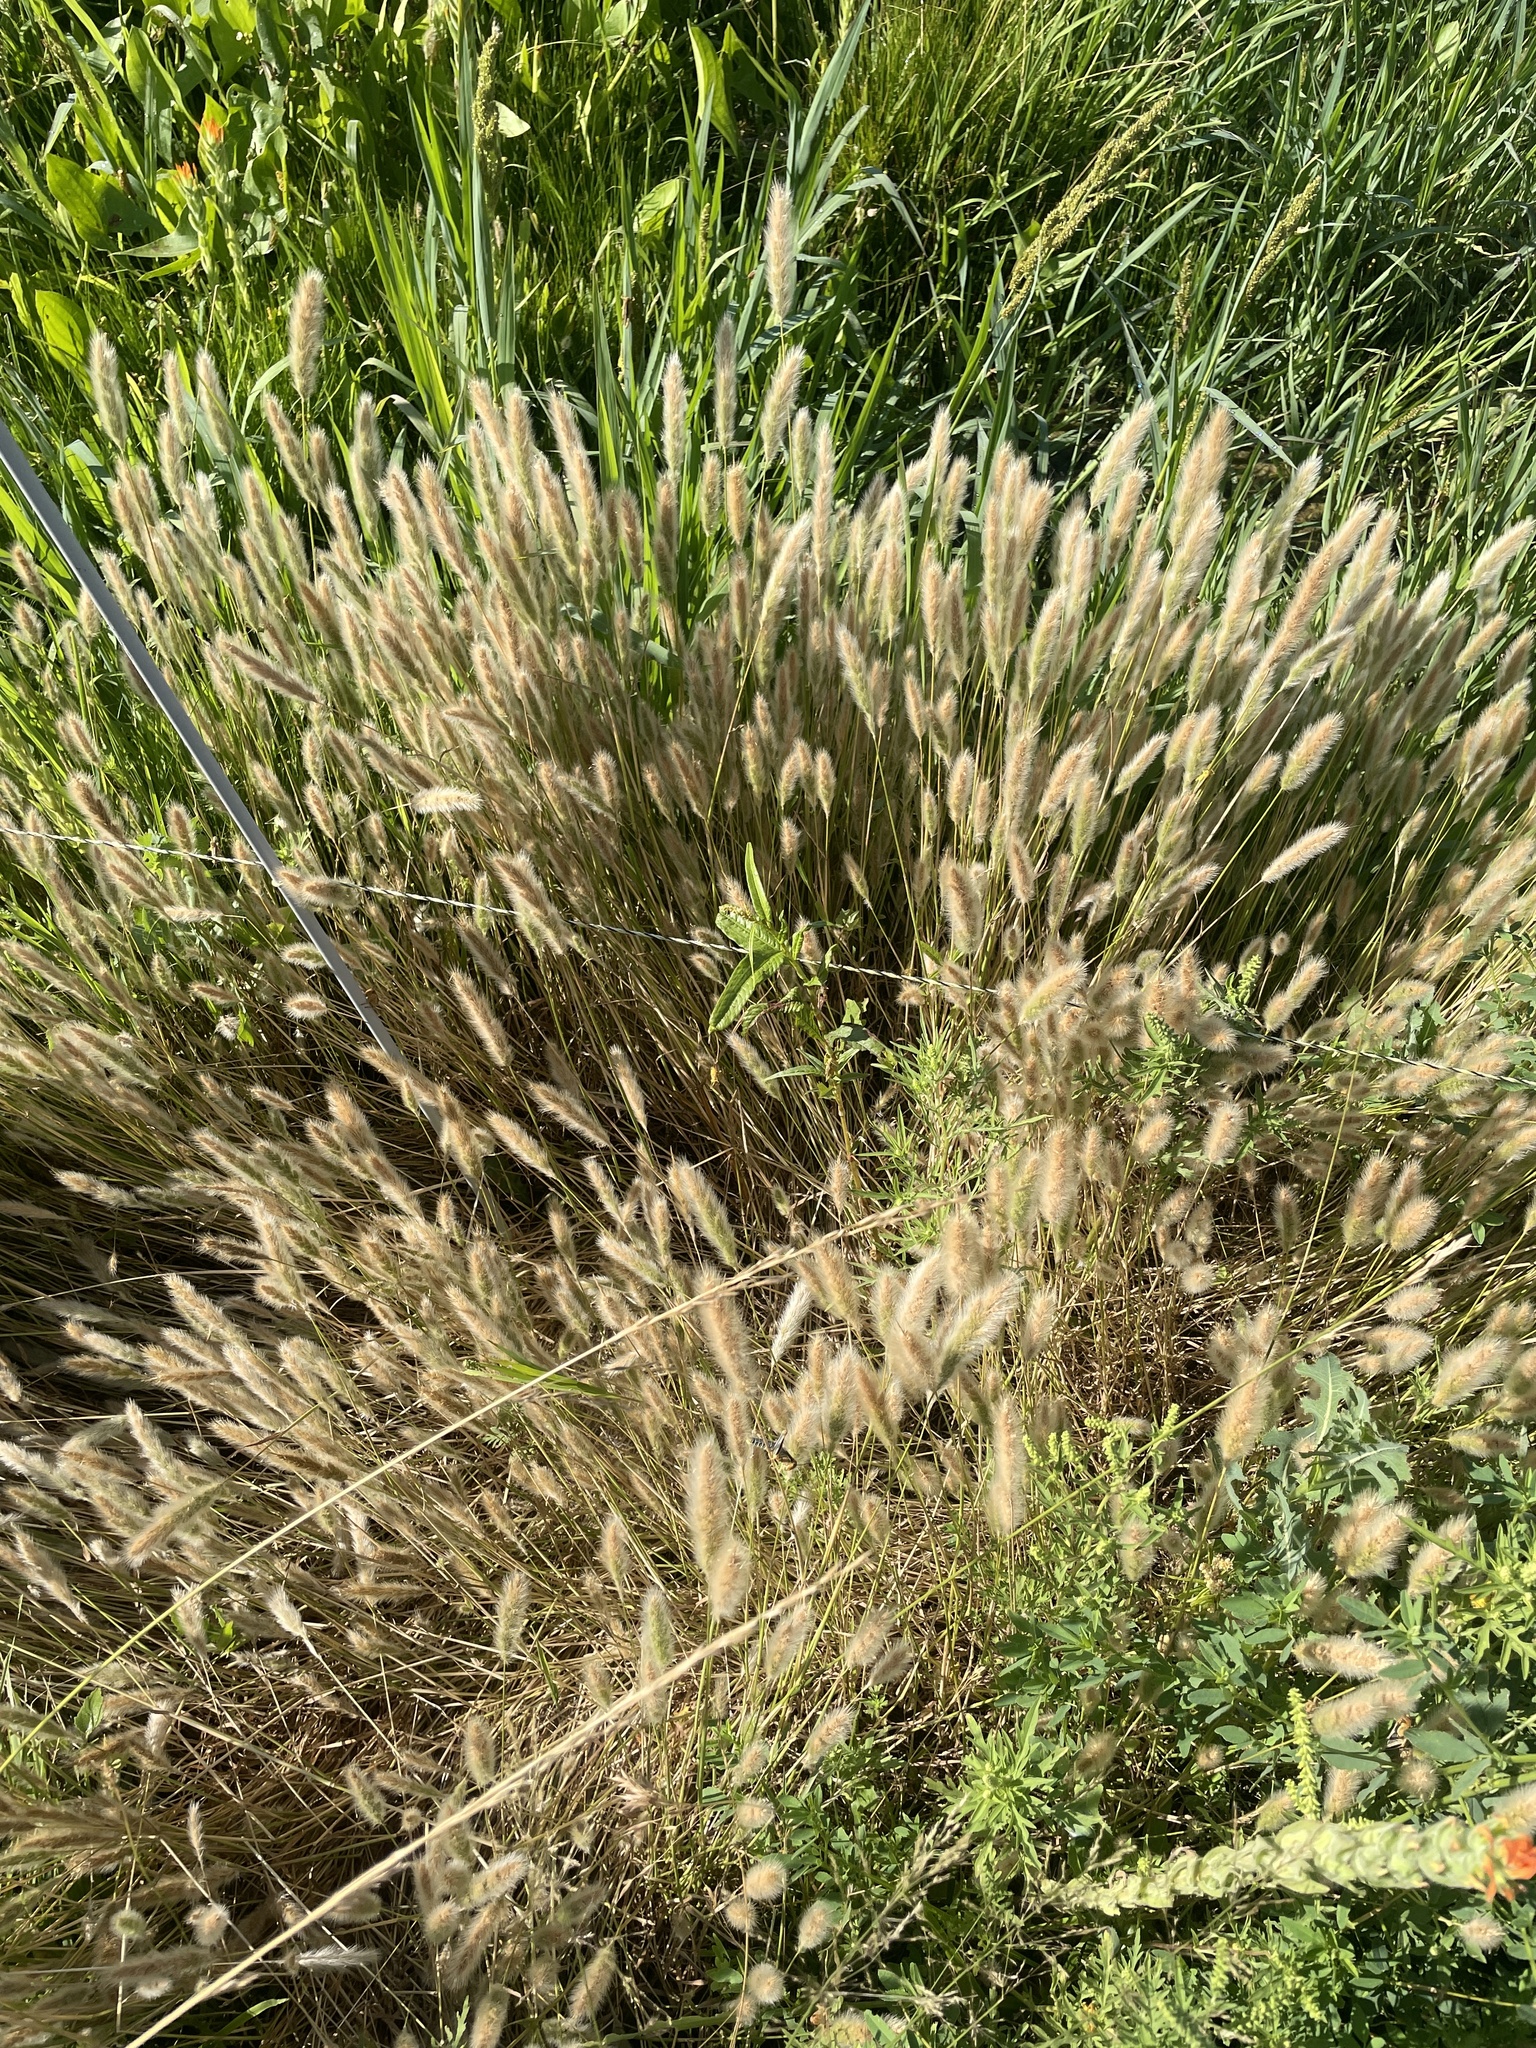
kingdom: Plantae
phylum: Tracheophyta
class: Liliopsida
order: Poales
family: Poaceae
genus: Polypogon
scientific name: Polypogon monspeliensis
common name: Annual rabbitsfoot grass
